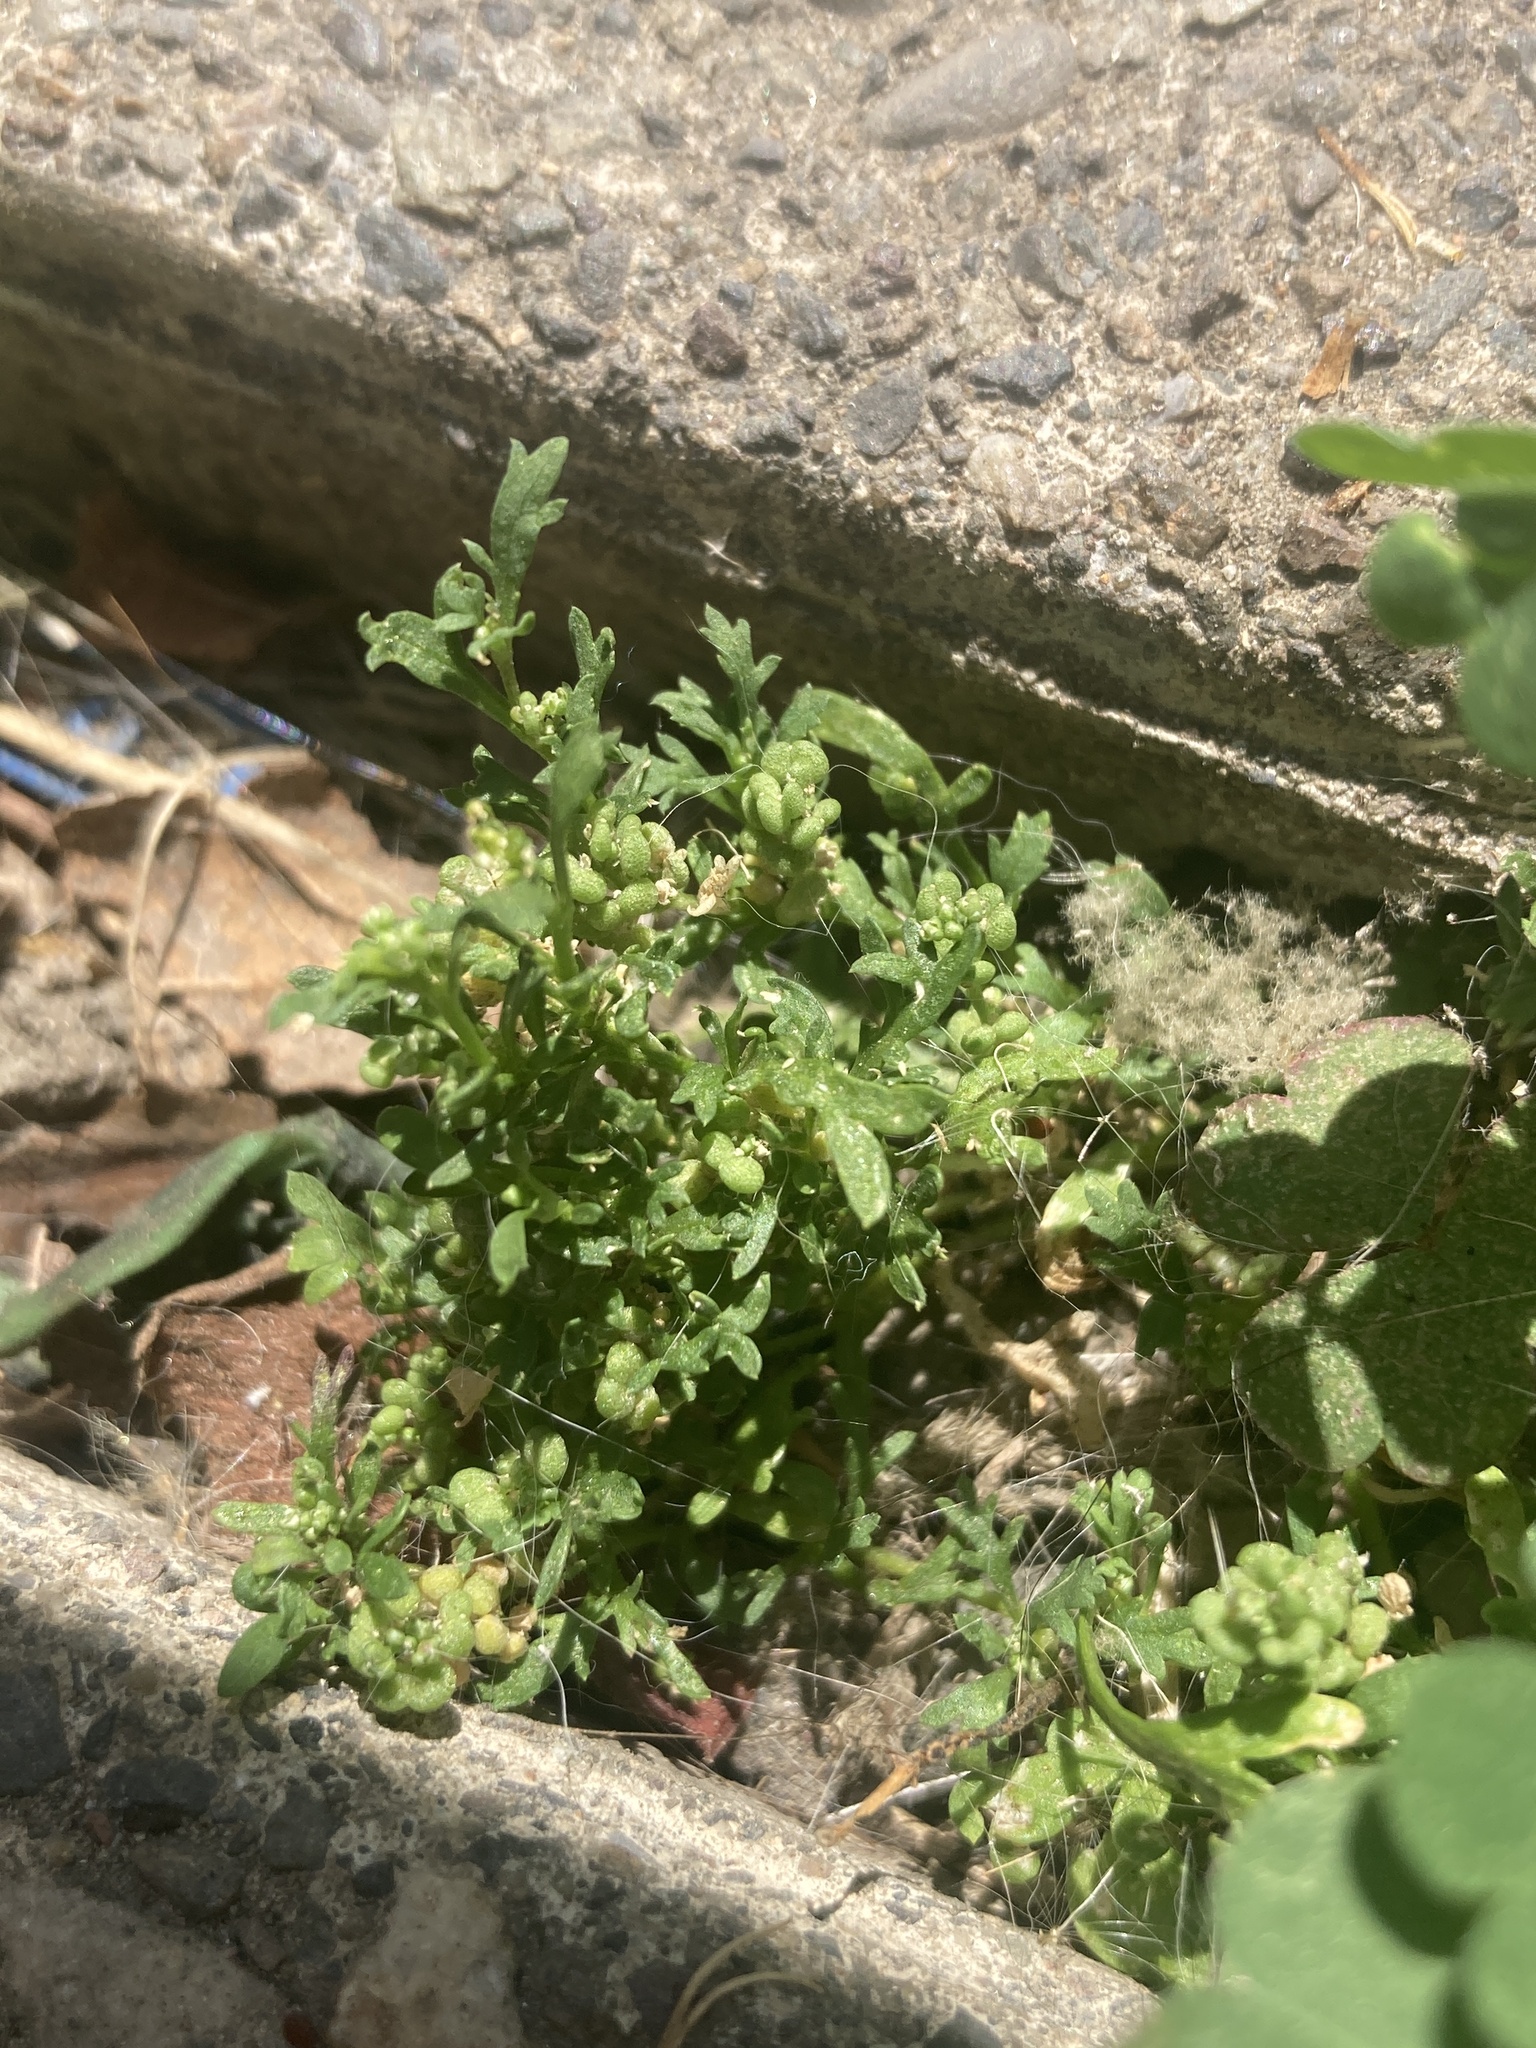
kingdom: Plantae
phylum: Tracheophyta
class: Magnoliopsida
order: Brassicales
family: Brassicaceae
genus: Lepidium
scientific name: Lepidium didymum
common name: Lesser swinecress
